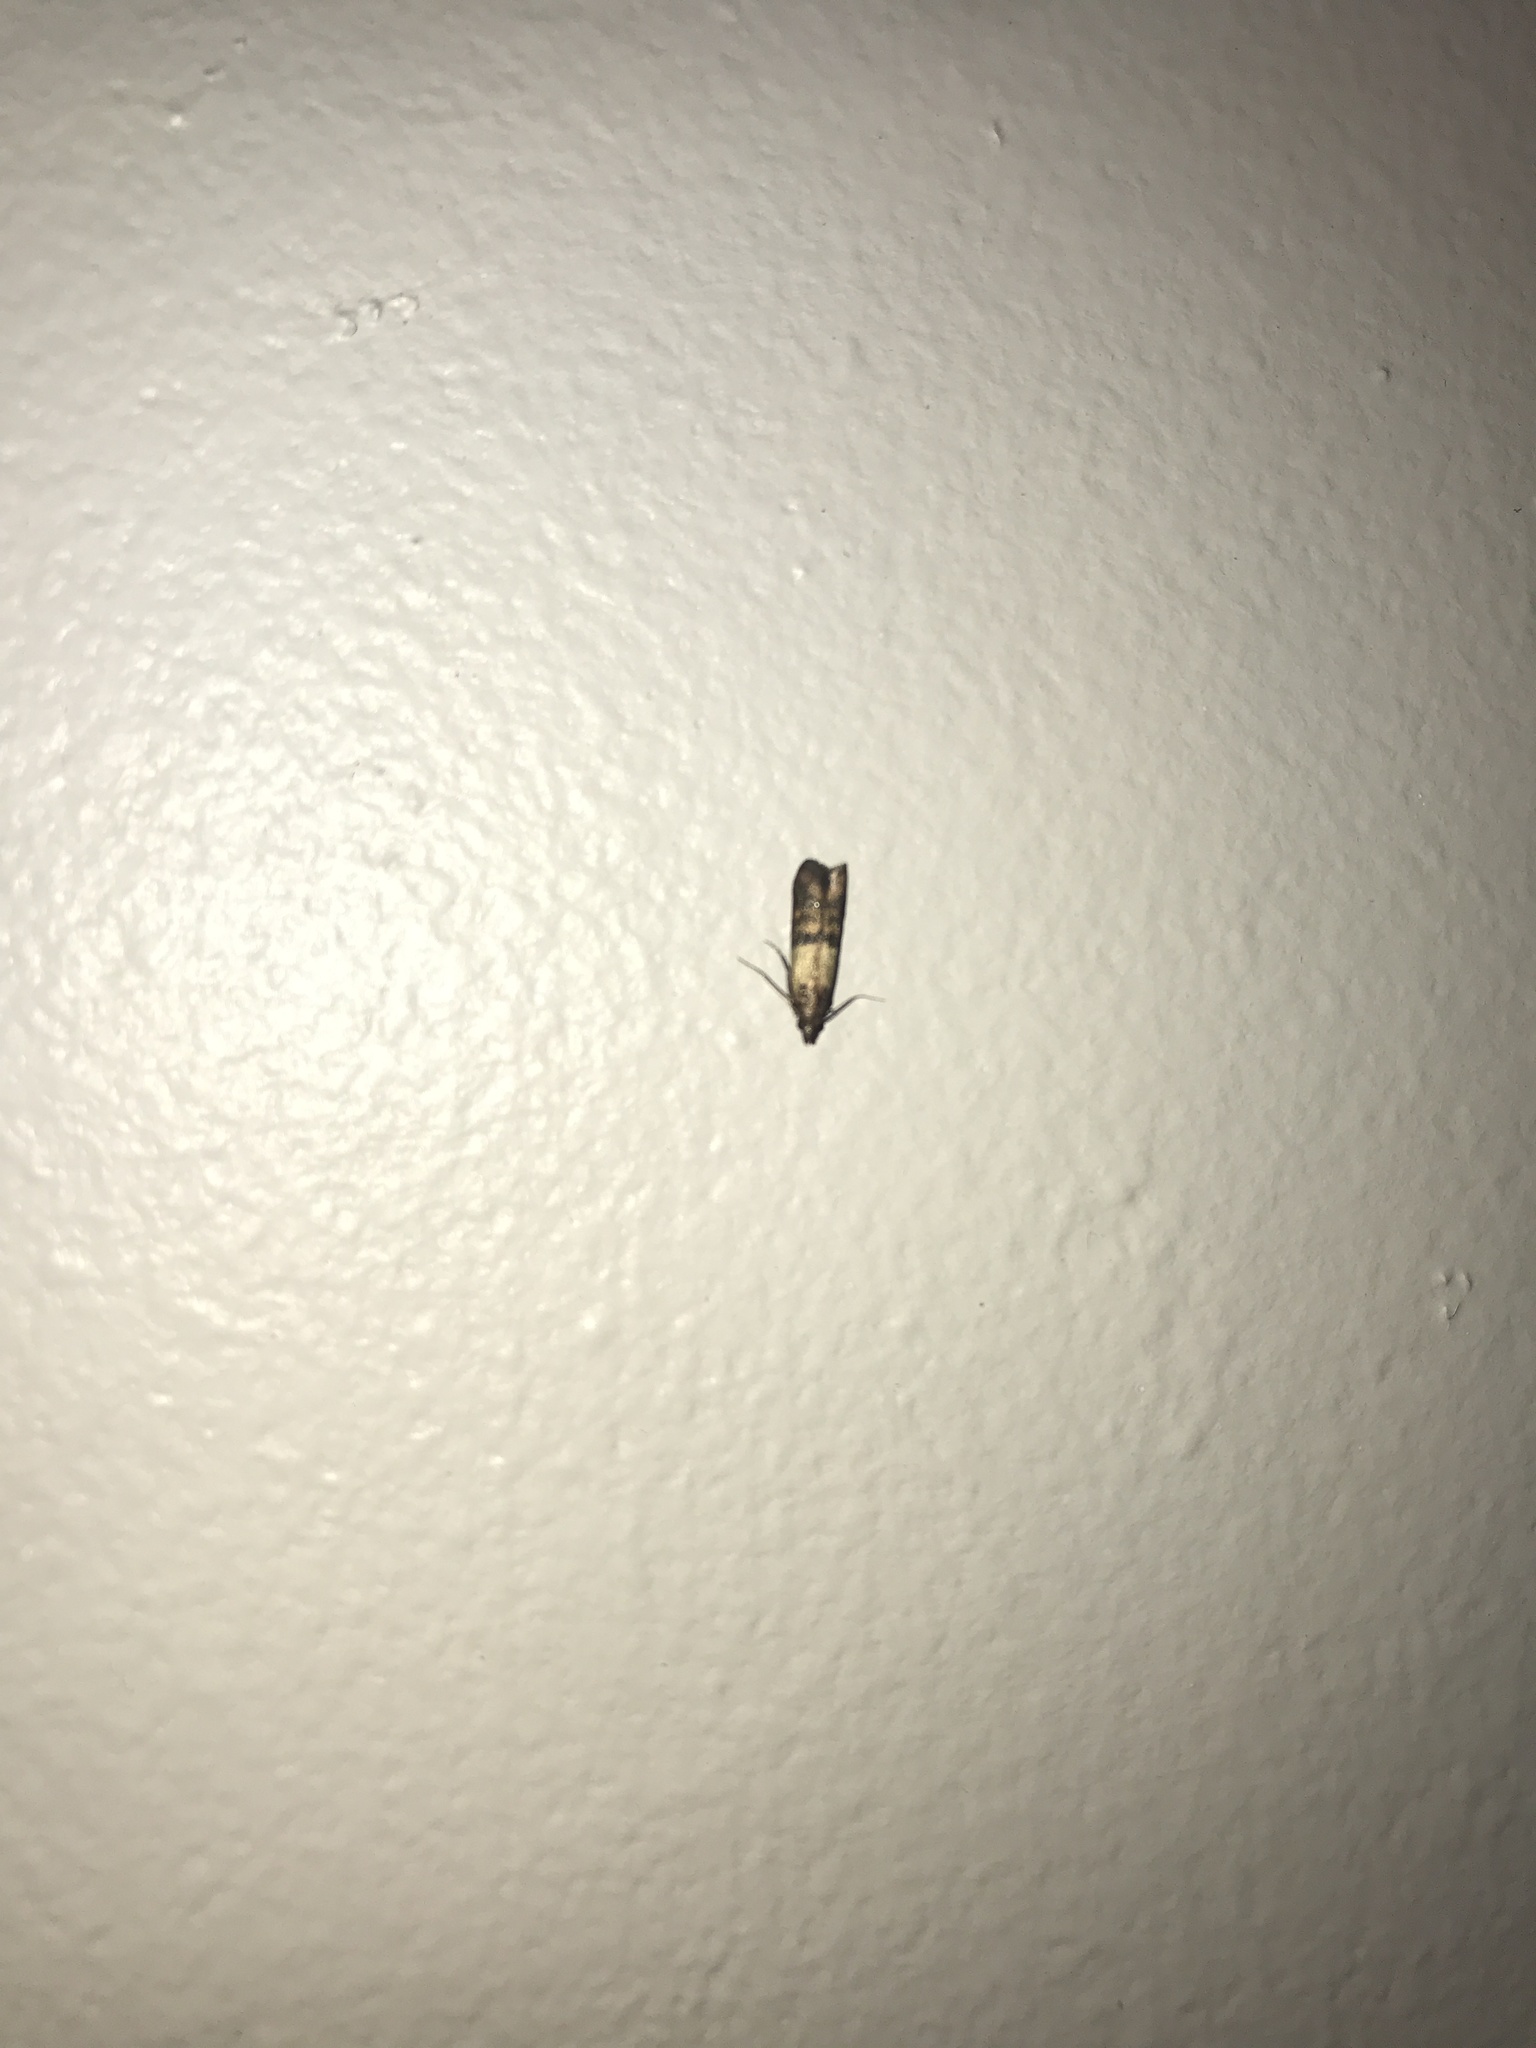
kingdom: Animalia
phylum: Arthropoda
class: Insecta
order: Lepidoptera
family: Pyralidae
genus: Plodia
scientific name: Plodia interpunctella
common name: Indian meal moth
